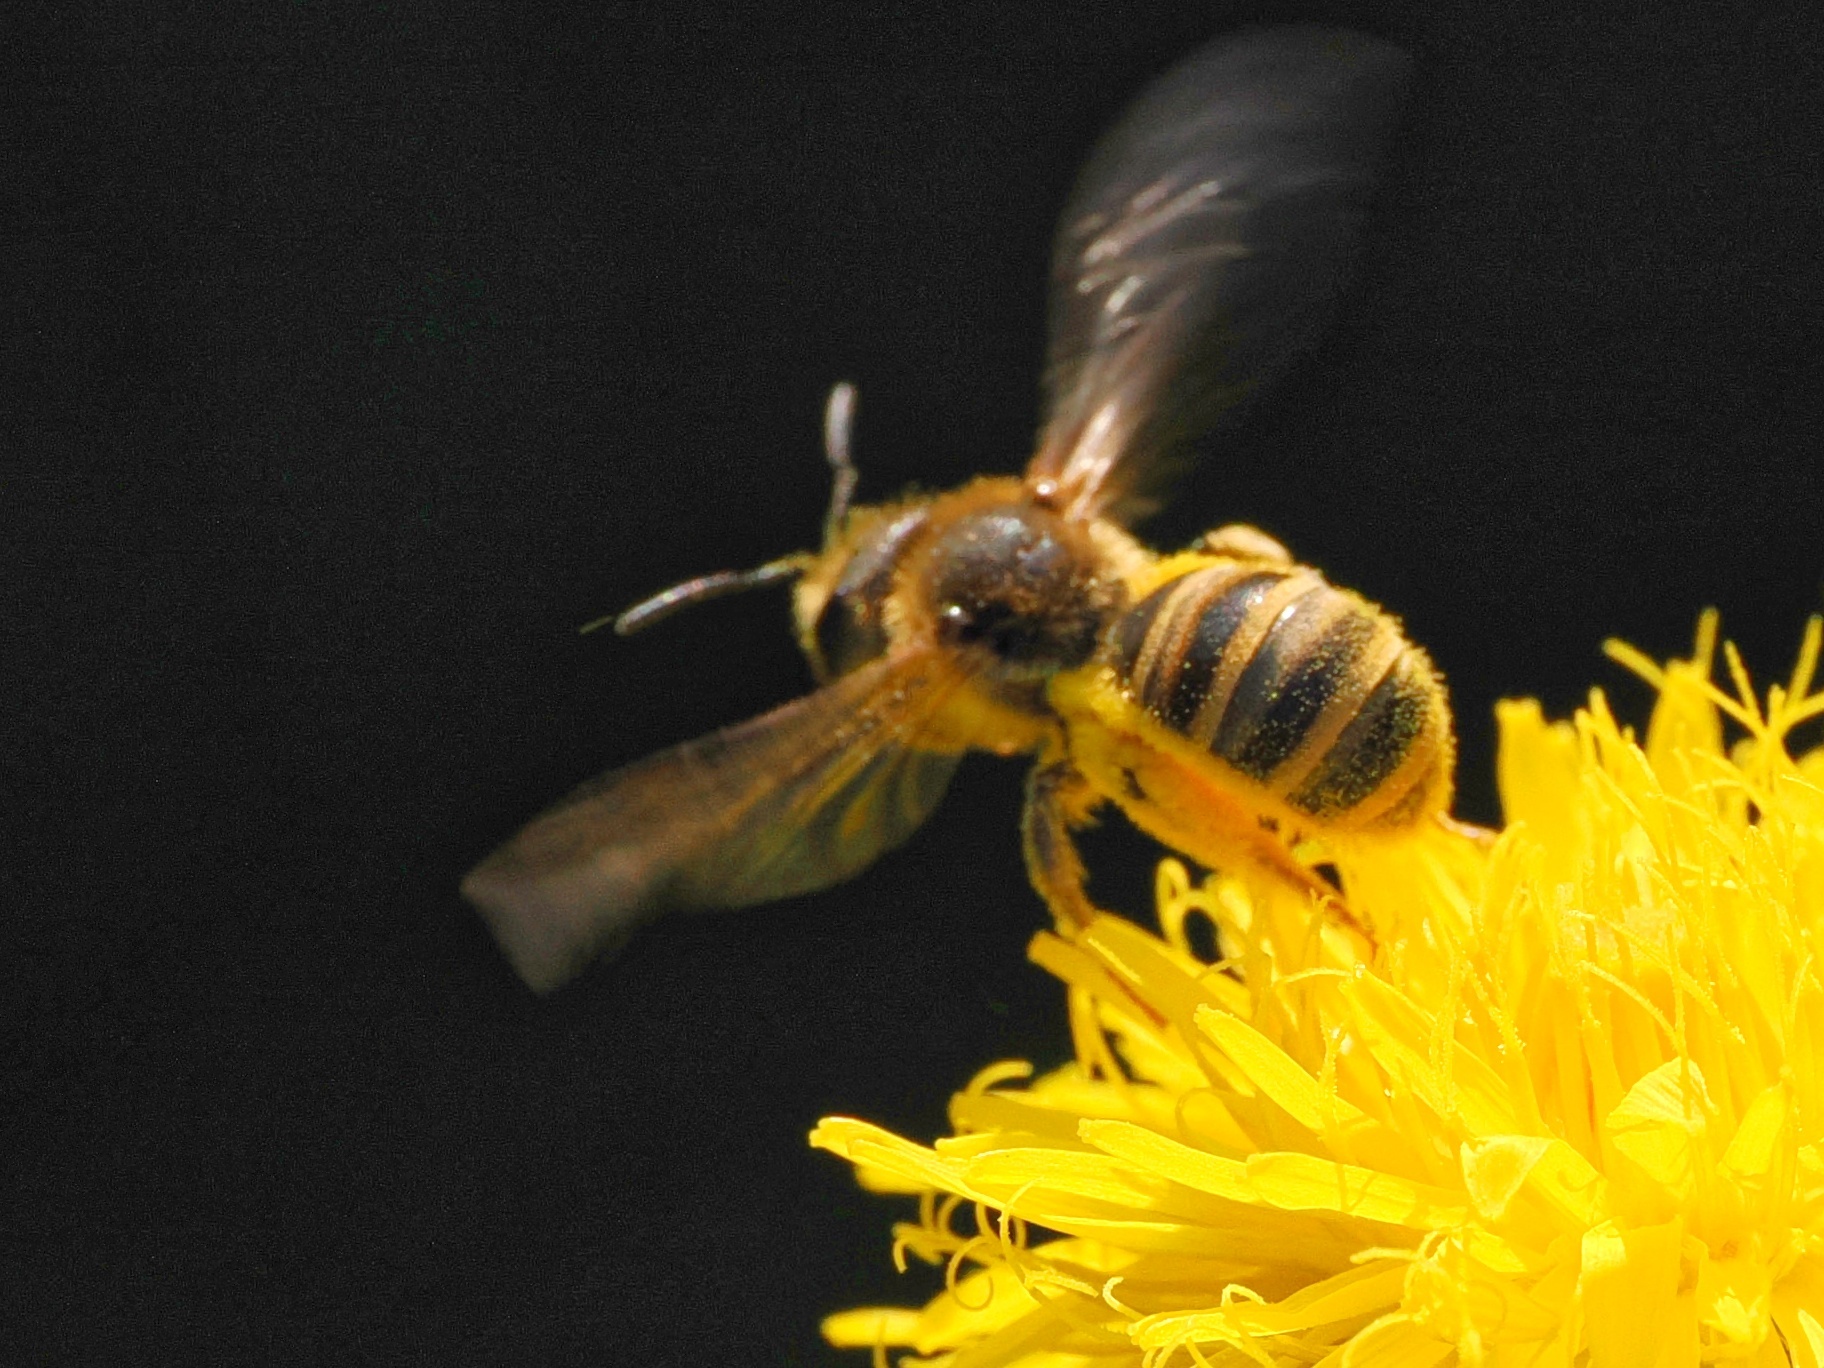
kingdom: Animalia
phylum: Arthropoda
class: Insecta
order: Hymenoptera
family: Halictidae
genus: Halictus
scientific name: Halictus scabiosae
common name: Great banded furrow bee
